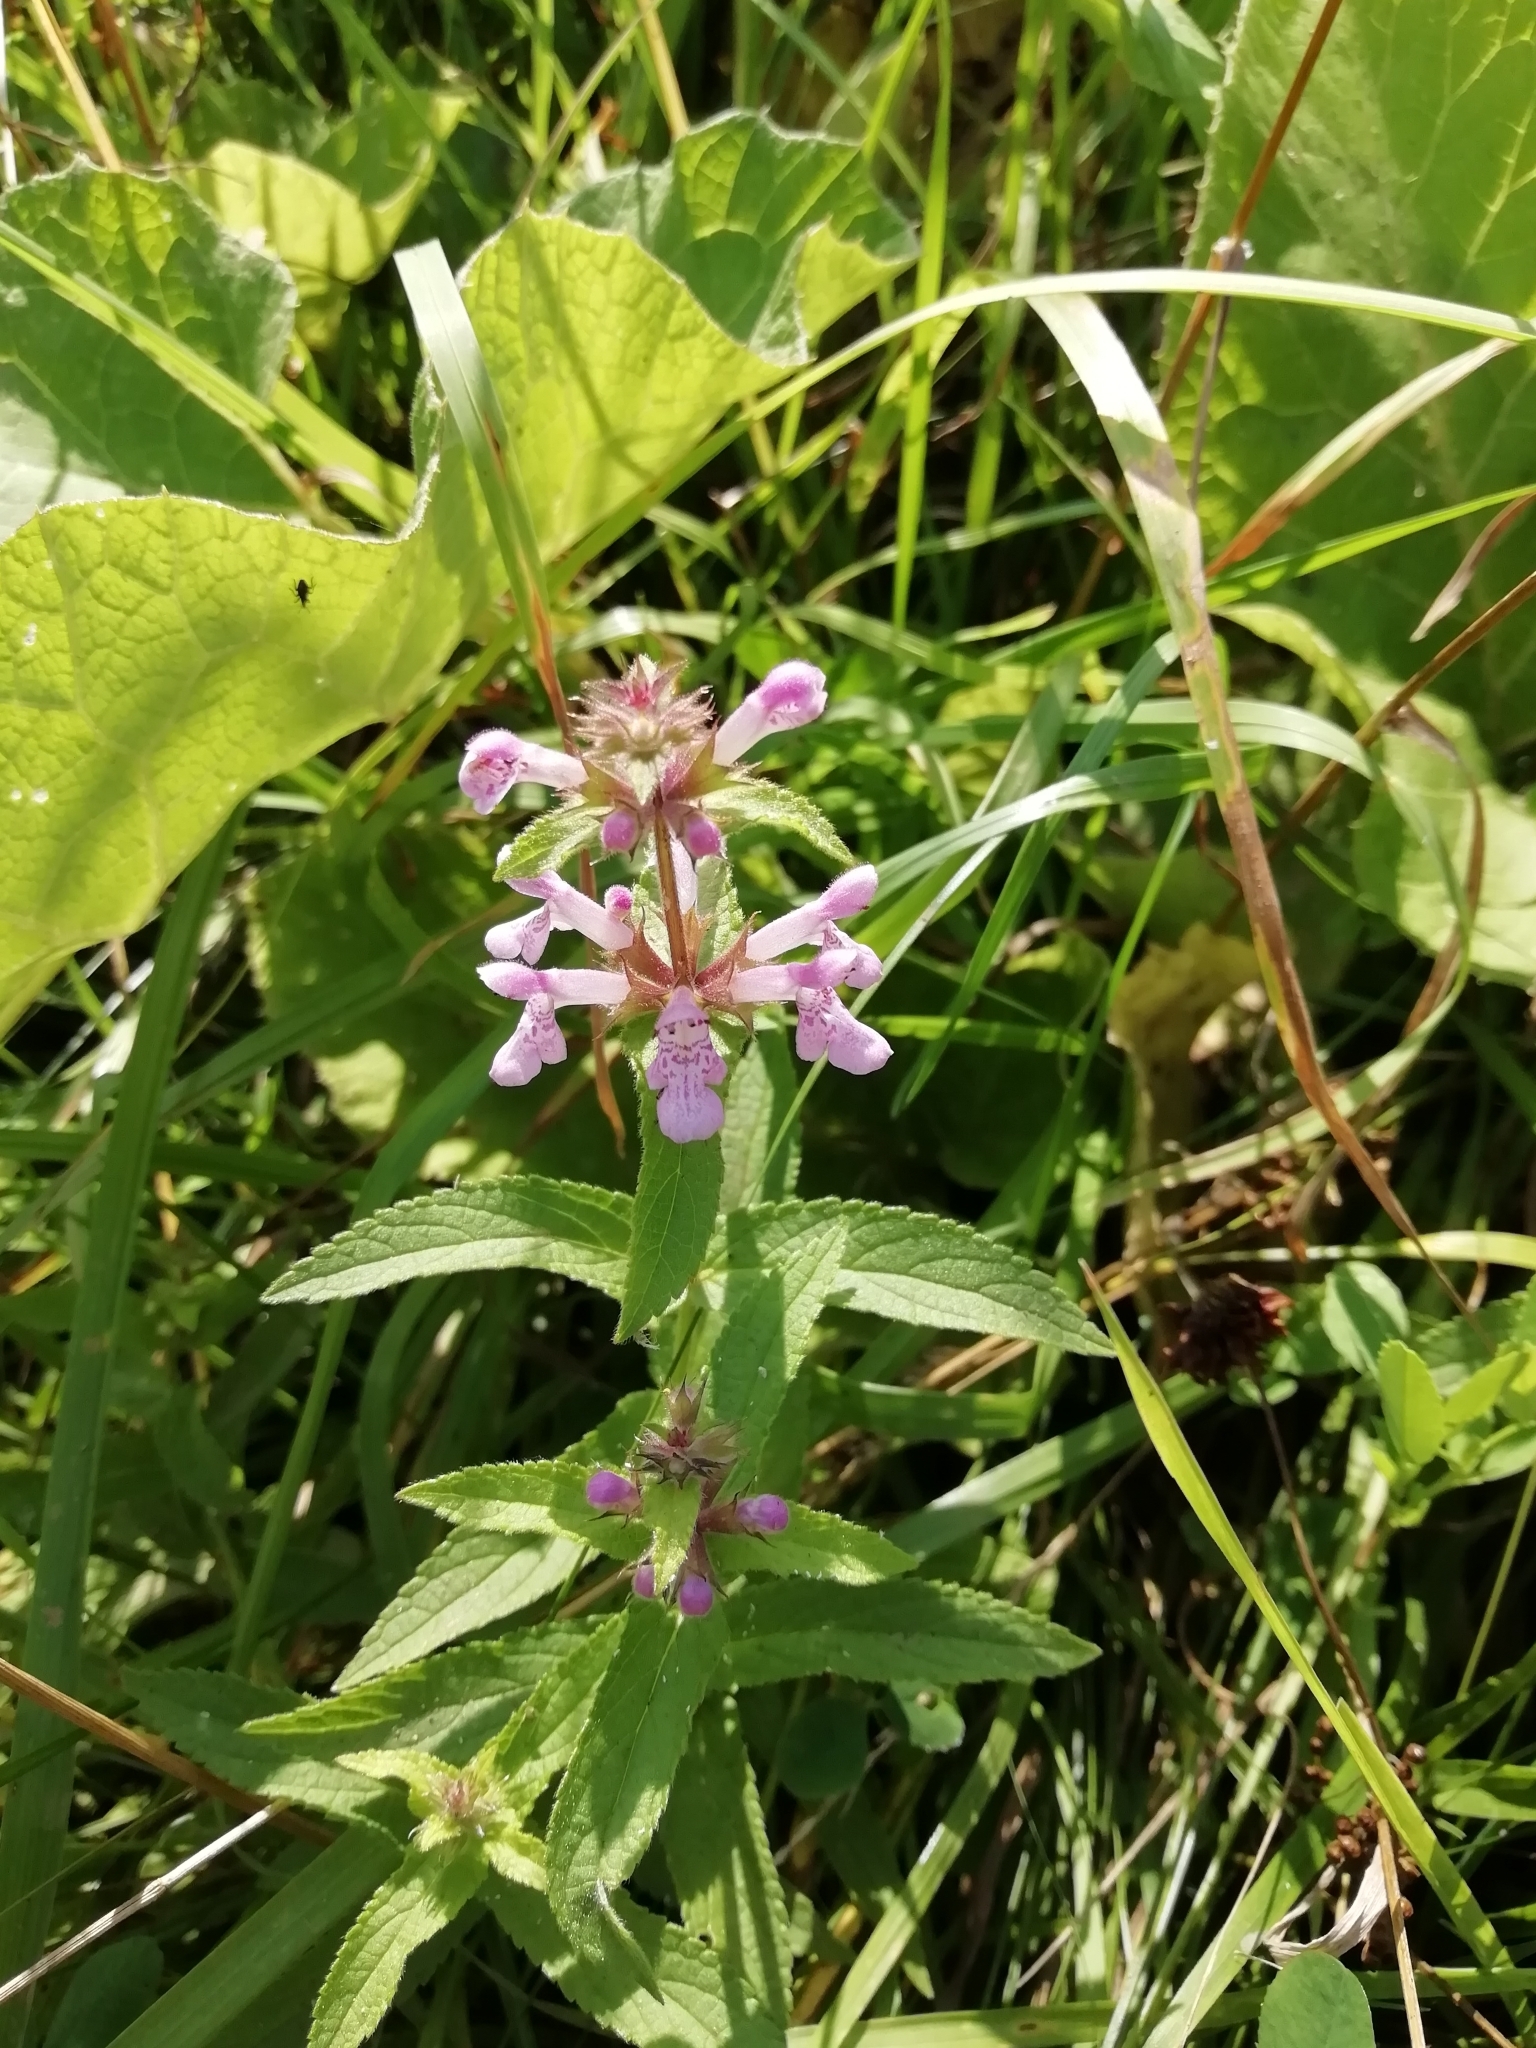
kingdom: Plantae
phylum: Tracheophyta
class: Magnoliopsida
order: Lamiales
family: Lamiaceae
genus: Stachys
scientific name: Stachys palustris
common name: Marsh woundwort
